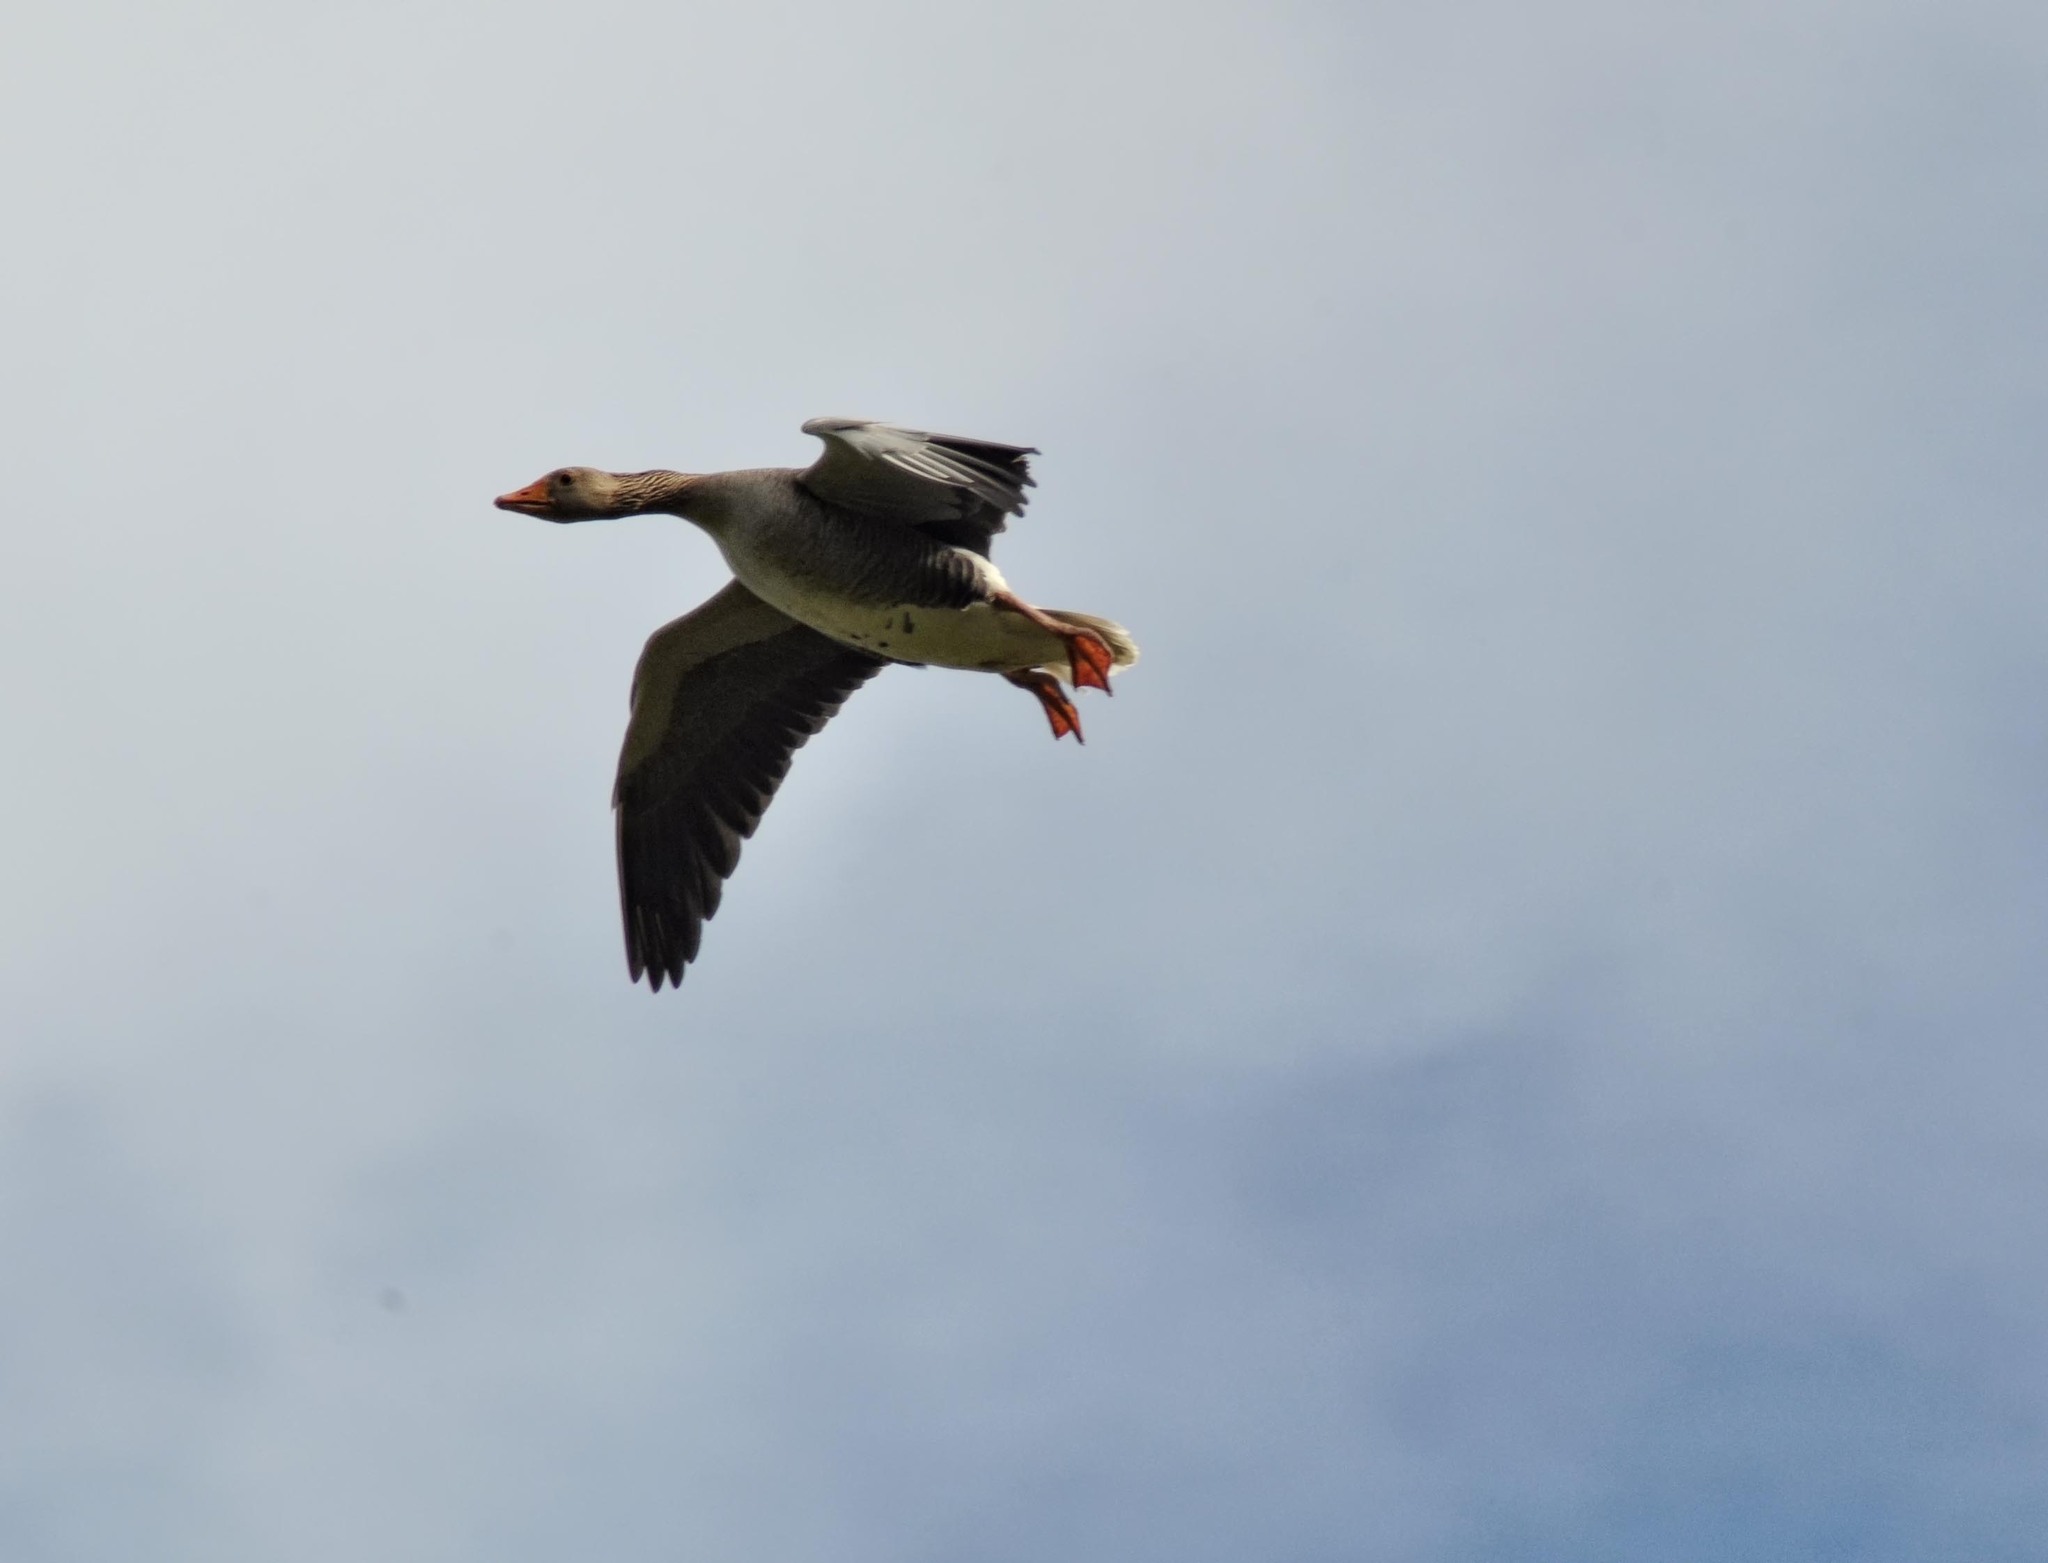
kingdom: Animalia
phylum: Chordata
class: Aves
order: Anseriformes
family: Anatidae
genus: Anser
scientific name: Anser anser
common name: Greylag goose
